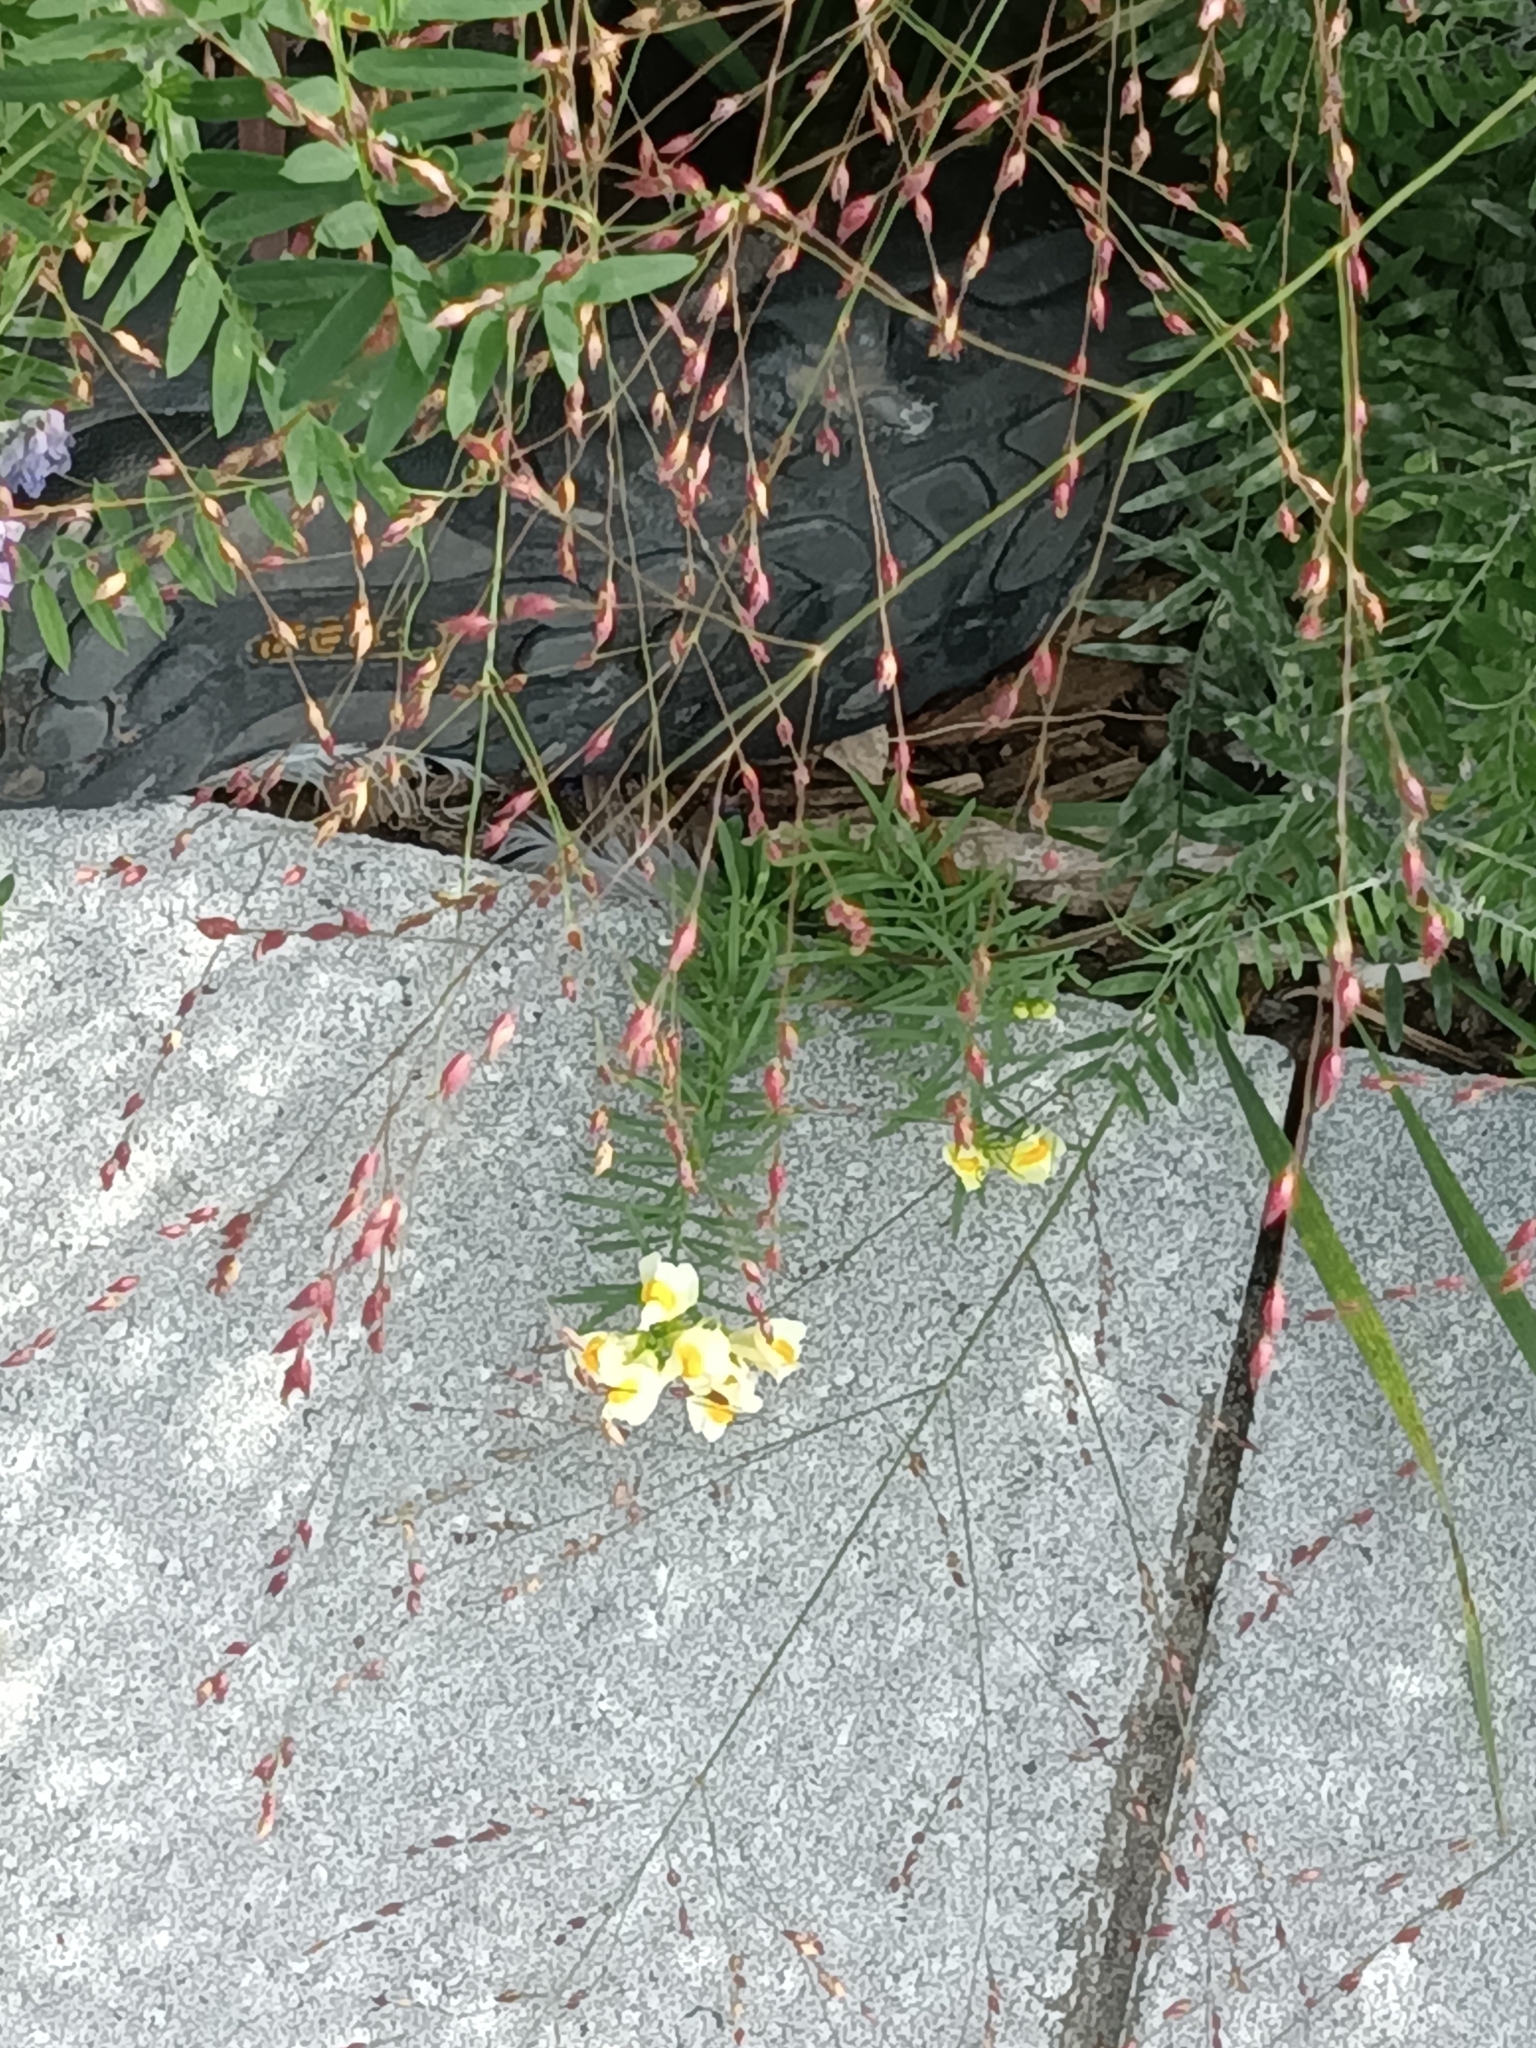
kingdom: Plantae
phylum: Tracheophyta
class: Magnoliopsida
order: Lamiales
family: Plantaginaceae
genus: Linaria
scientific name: Linaria vulgaris
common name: Butter and eggs
